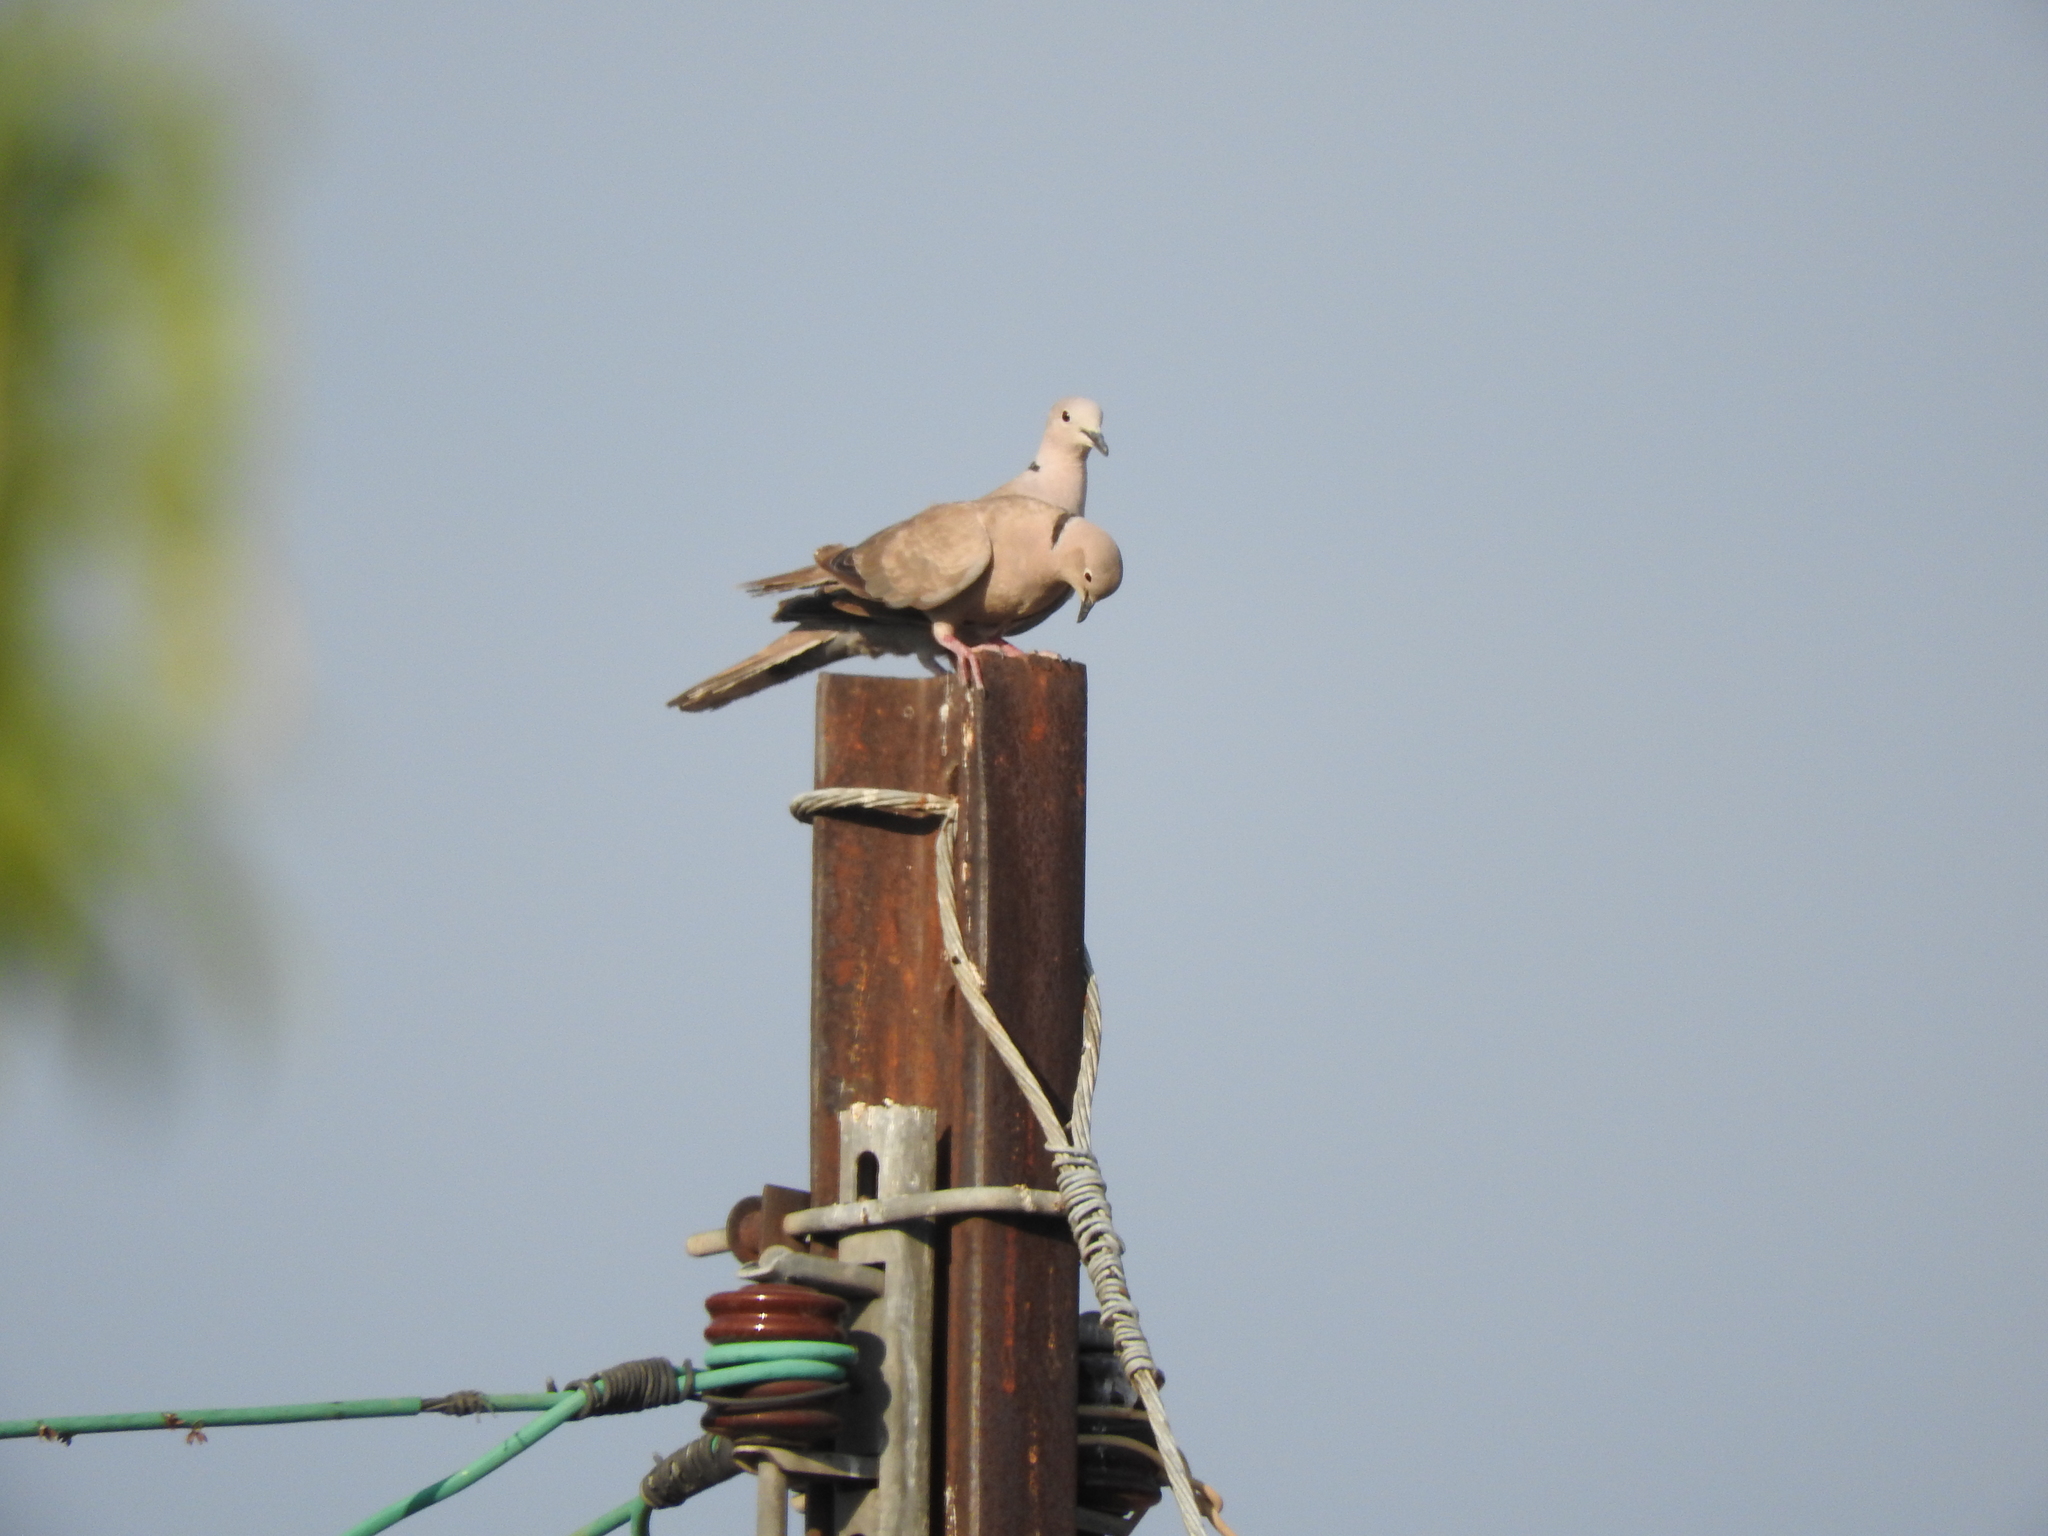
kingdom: Animalia
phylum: Chordata
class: Aves
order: Columbiformes
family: Columbidae
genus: Streptopelia
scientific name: Streptopelia decaocto
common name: Eurasian collared dove
